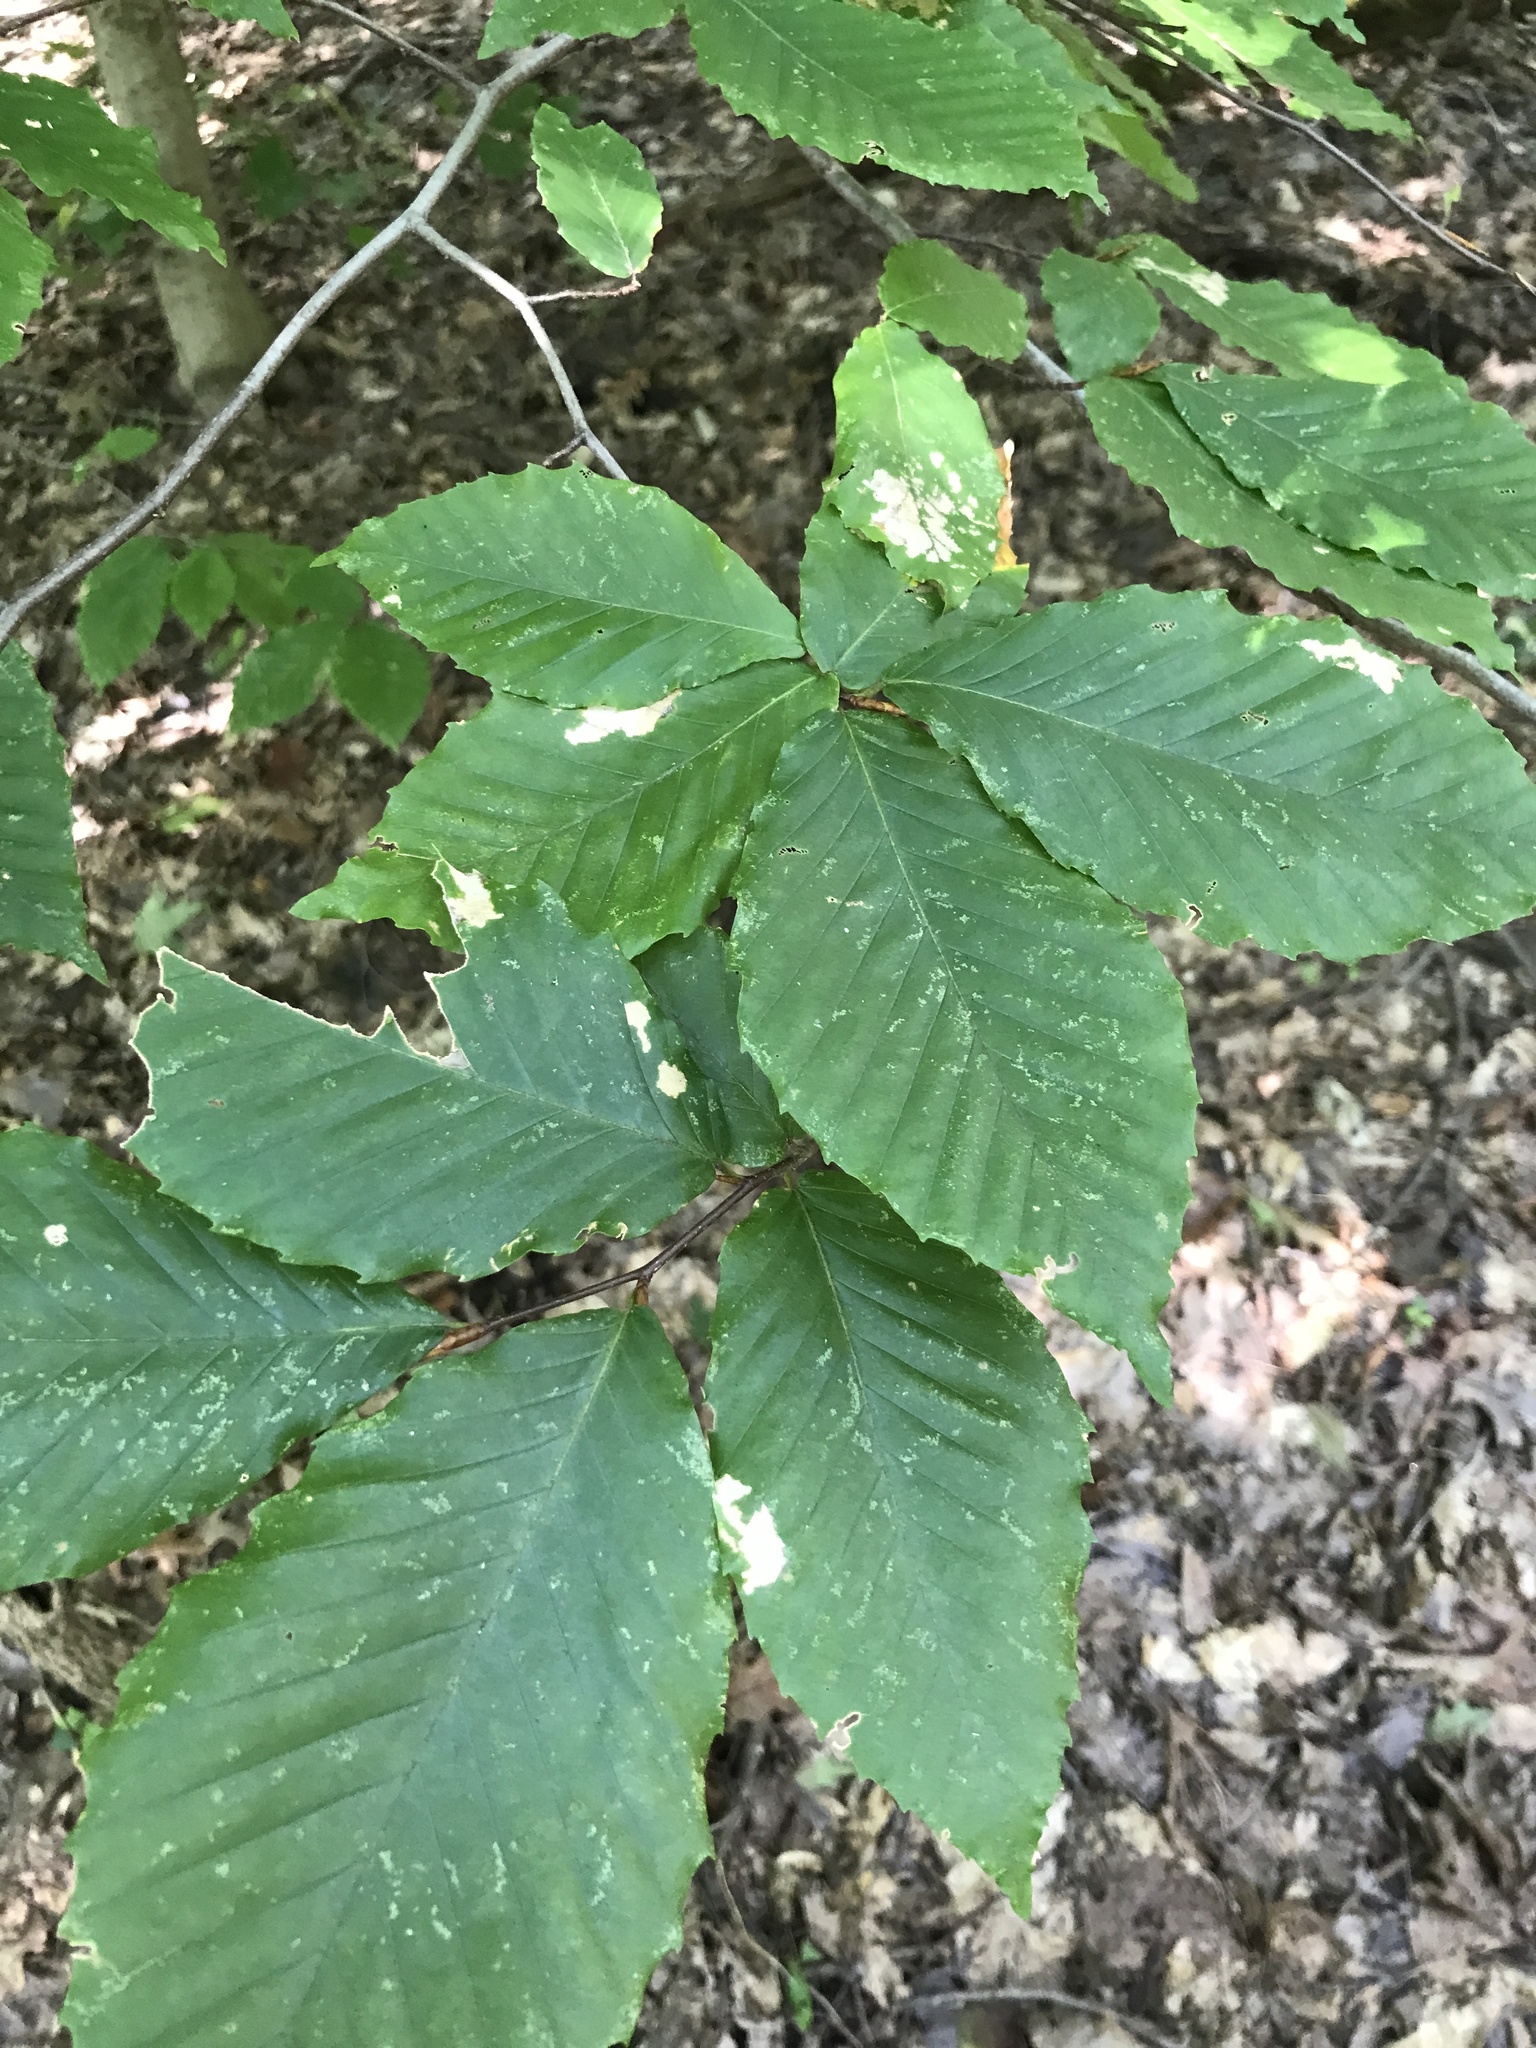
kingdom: Plantae
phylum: Tracheophyta
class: Magnoliopsida
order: Fagales
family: Fagaceae
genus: Fagus
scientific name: Fagus grandifolia
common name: American beech
